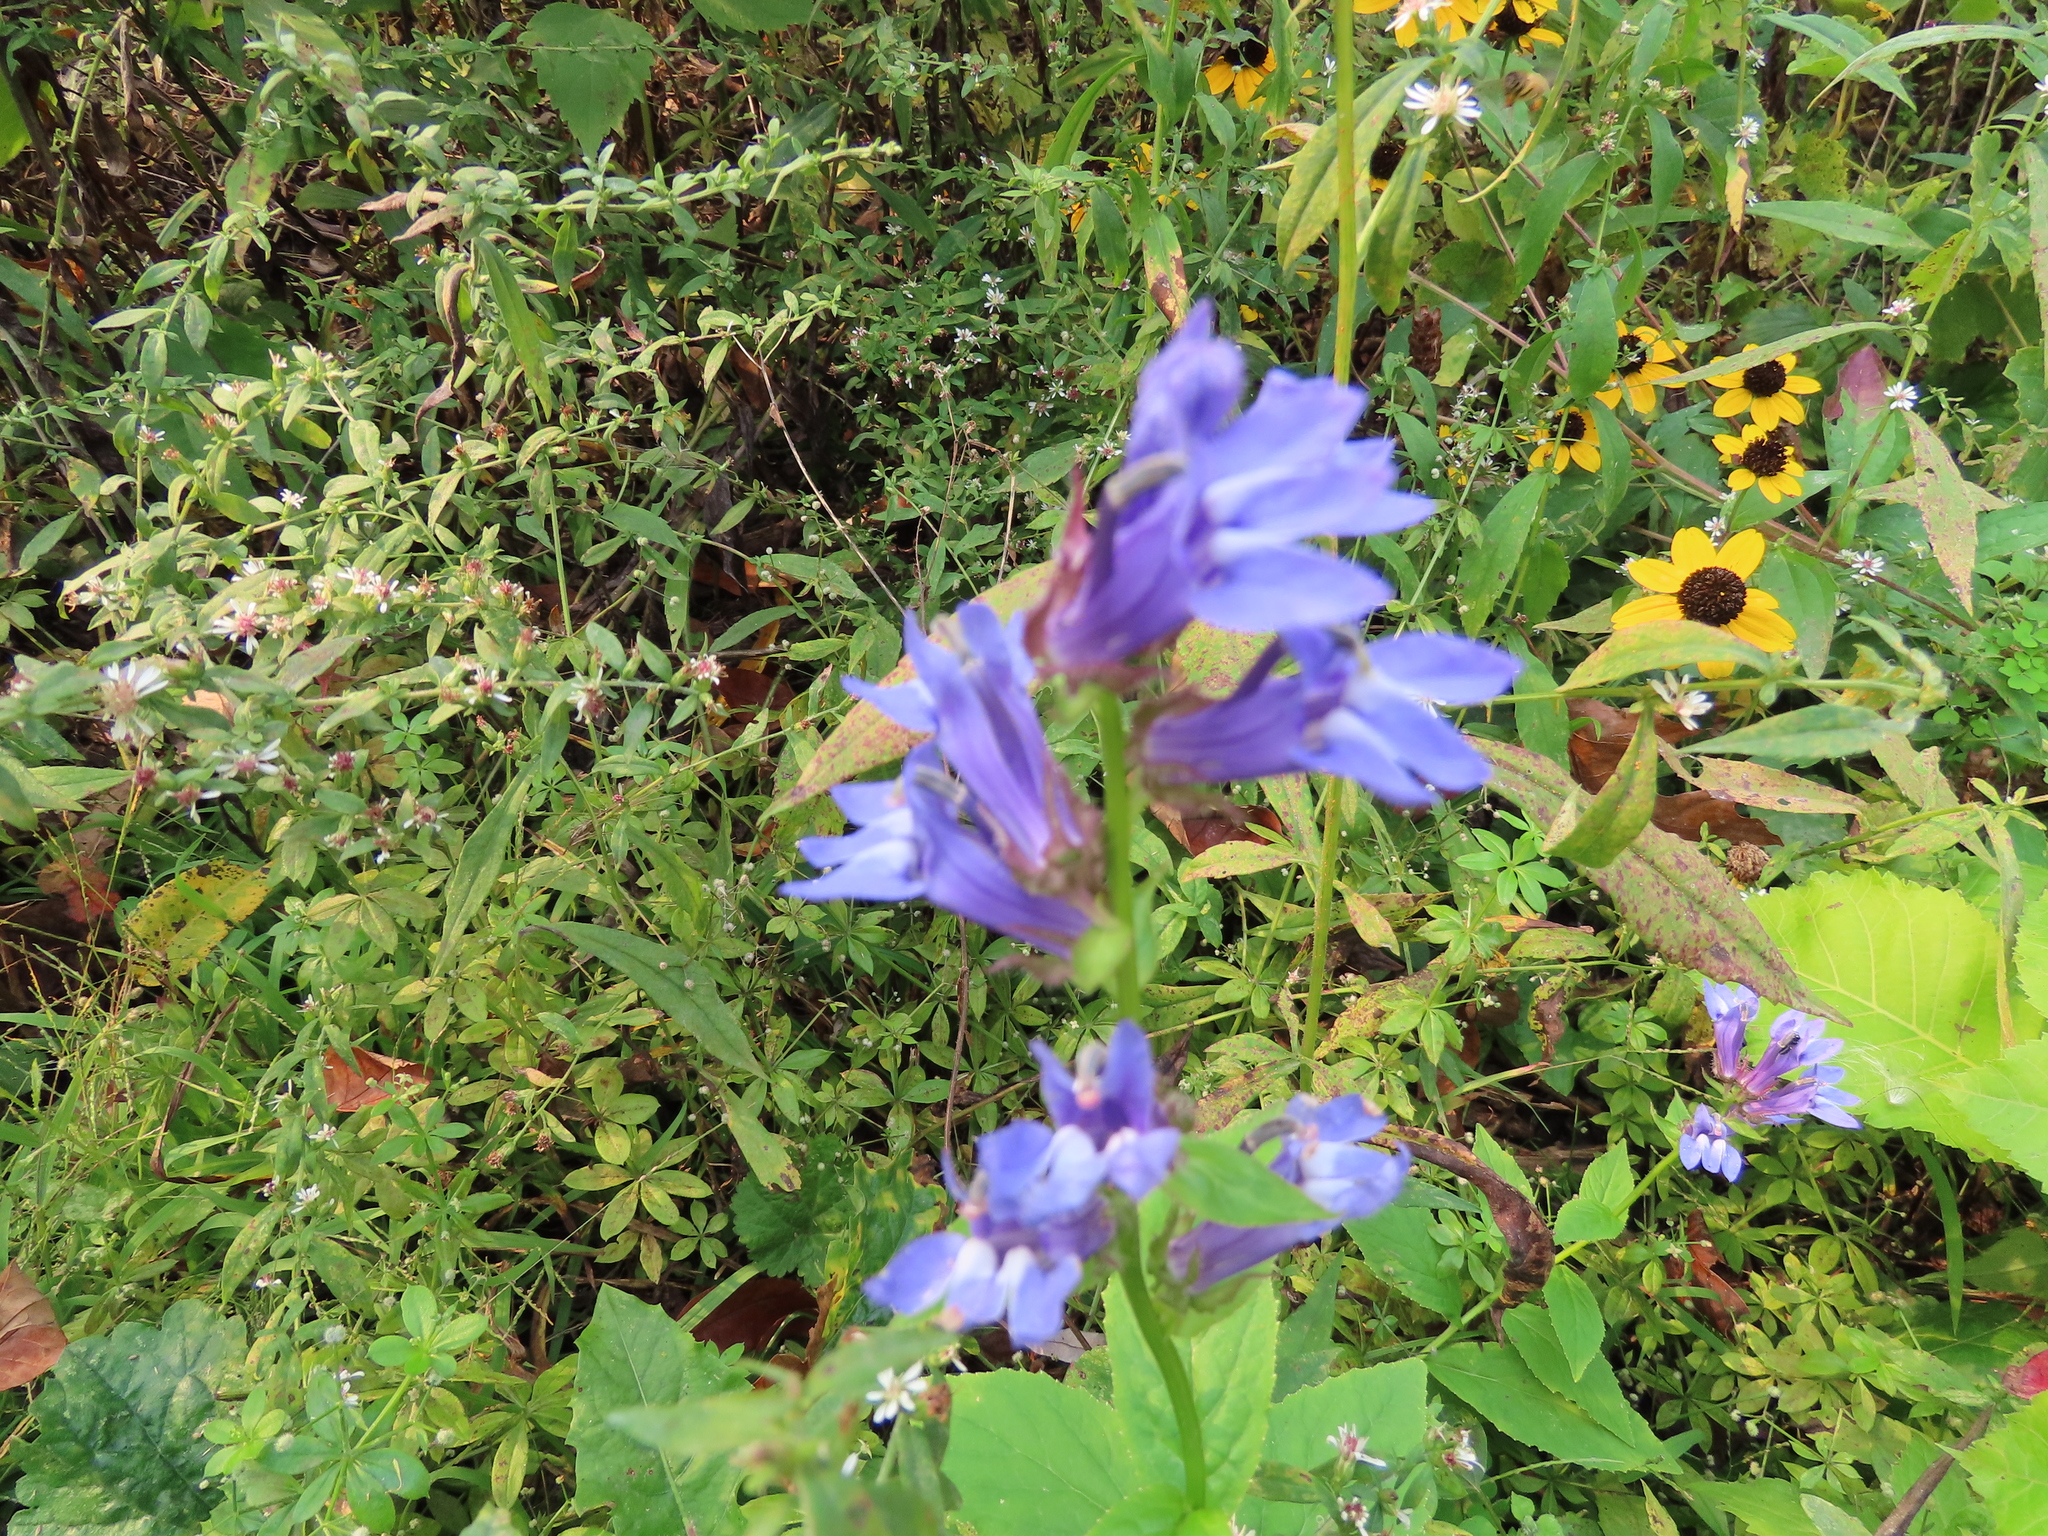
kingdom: Plantae
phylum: Tracheophyta
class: Magnoliopsida
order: Asterales
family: Campanulaceae
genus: Lobelia
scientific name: Lobelia siphilitica
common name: Great lobelia
